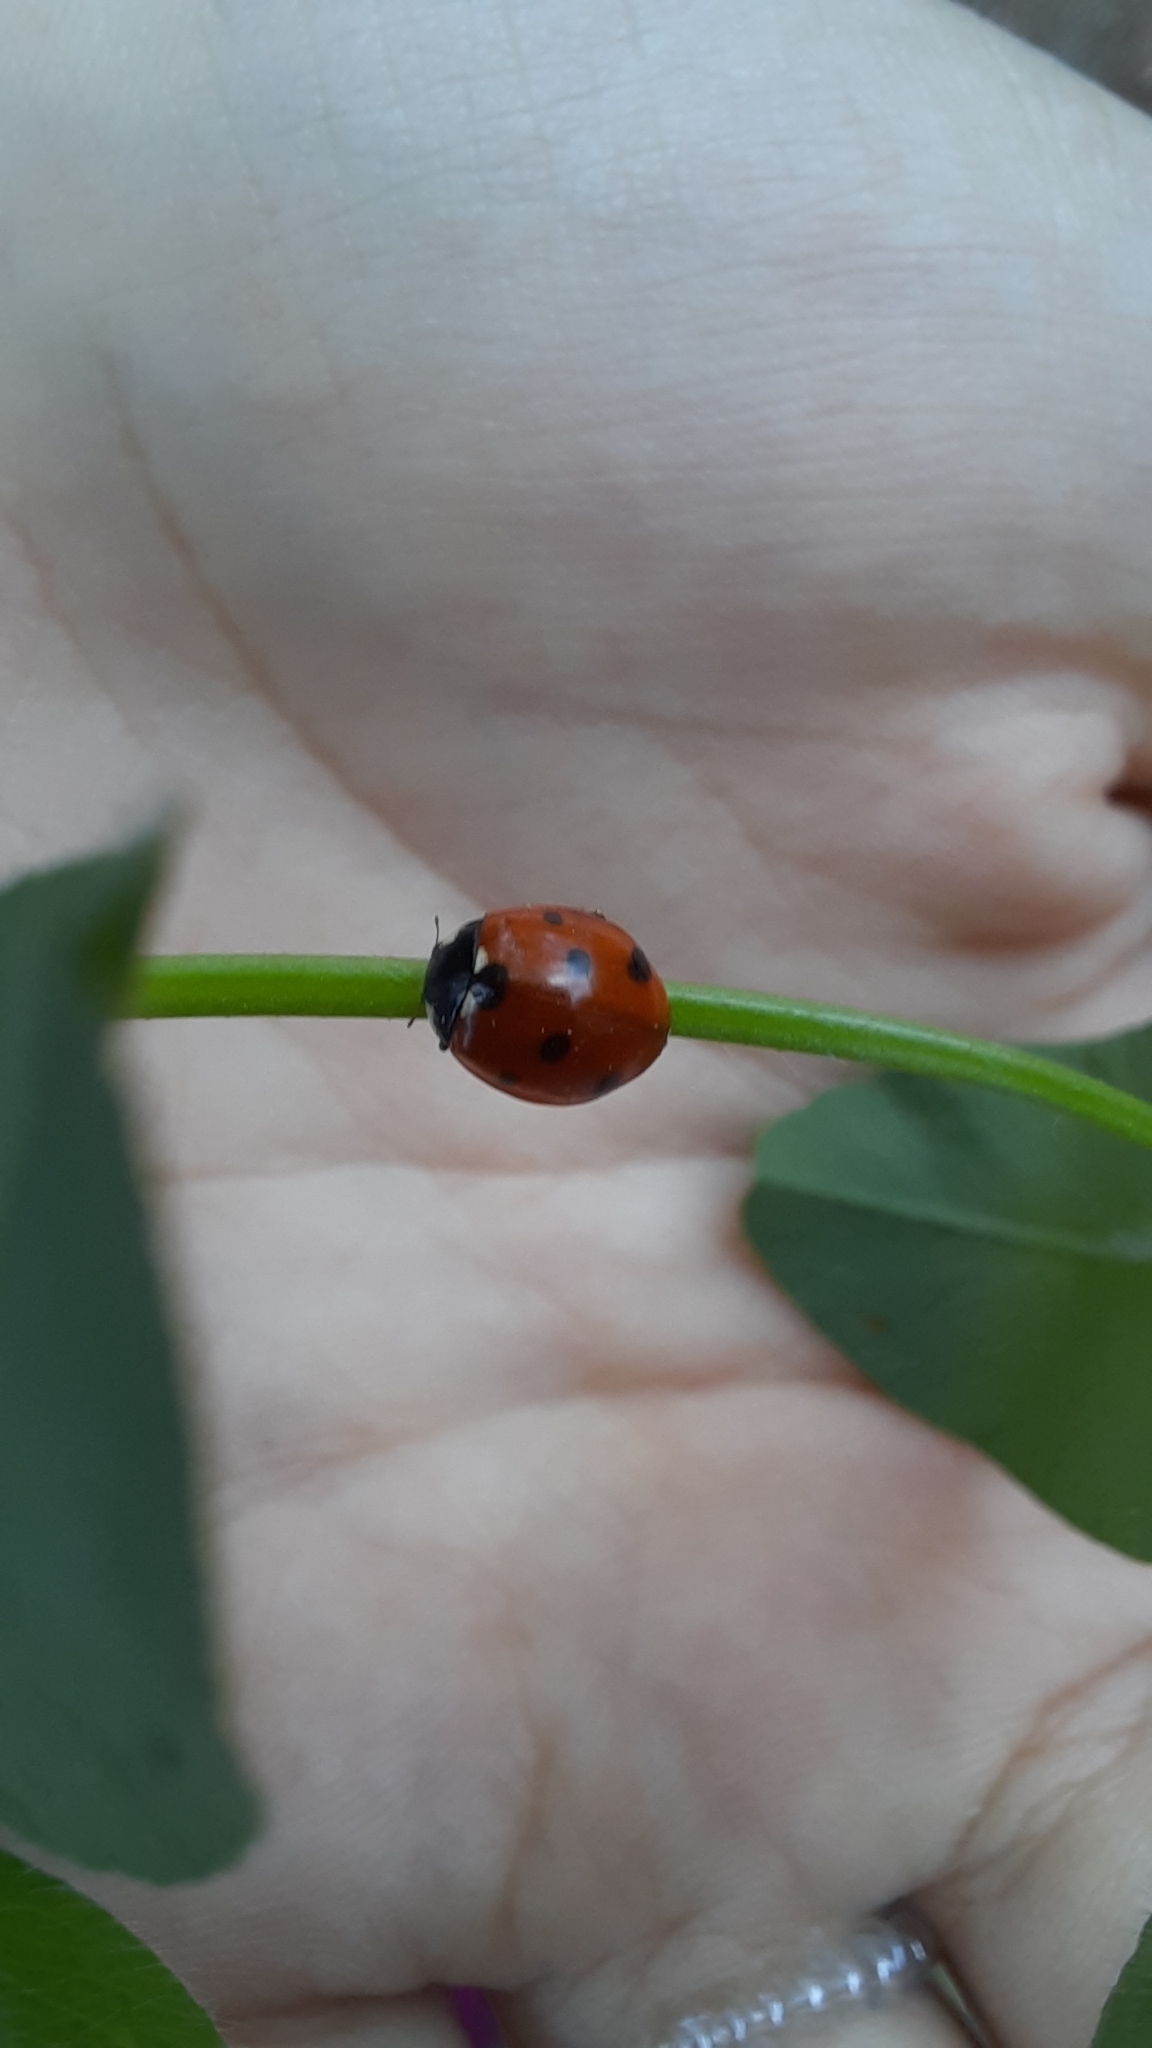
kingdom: Animalia
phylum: Arthropoda
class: Insecta
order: Coleoptera
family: Coccinellidae
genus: Coccinella
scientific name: Coccinella septempunctata
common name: Sevenspotted lady beetle
